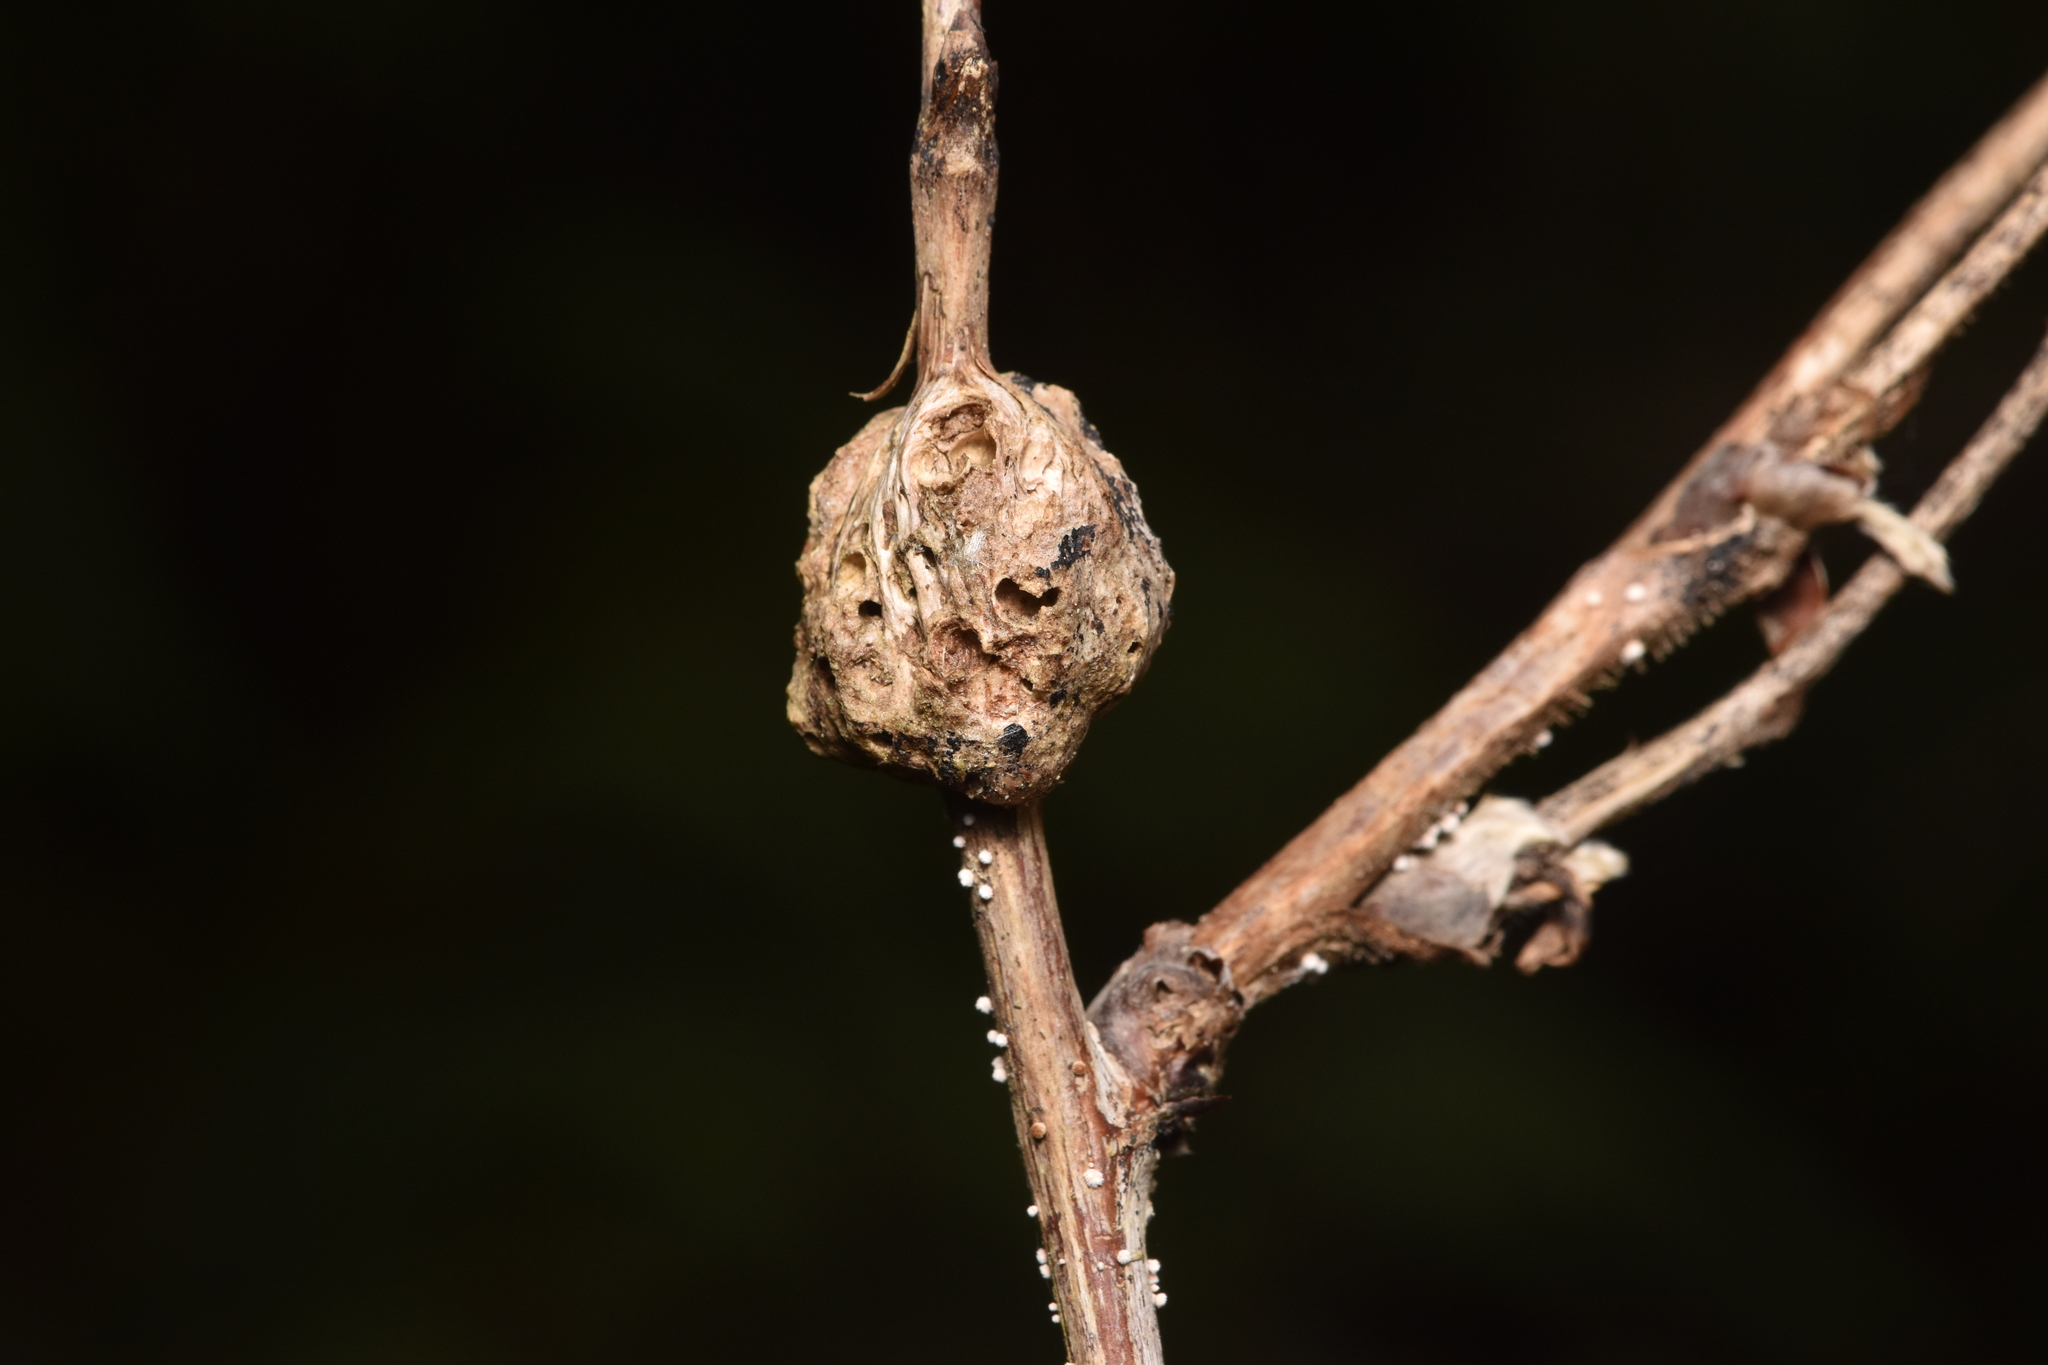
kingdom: Animalia
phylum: Arthropoda
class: Insecta
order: Hymenoptera
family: Cynipidae
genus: Diastrophus
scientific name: Diastrophus
